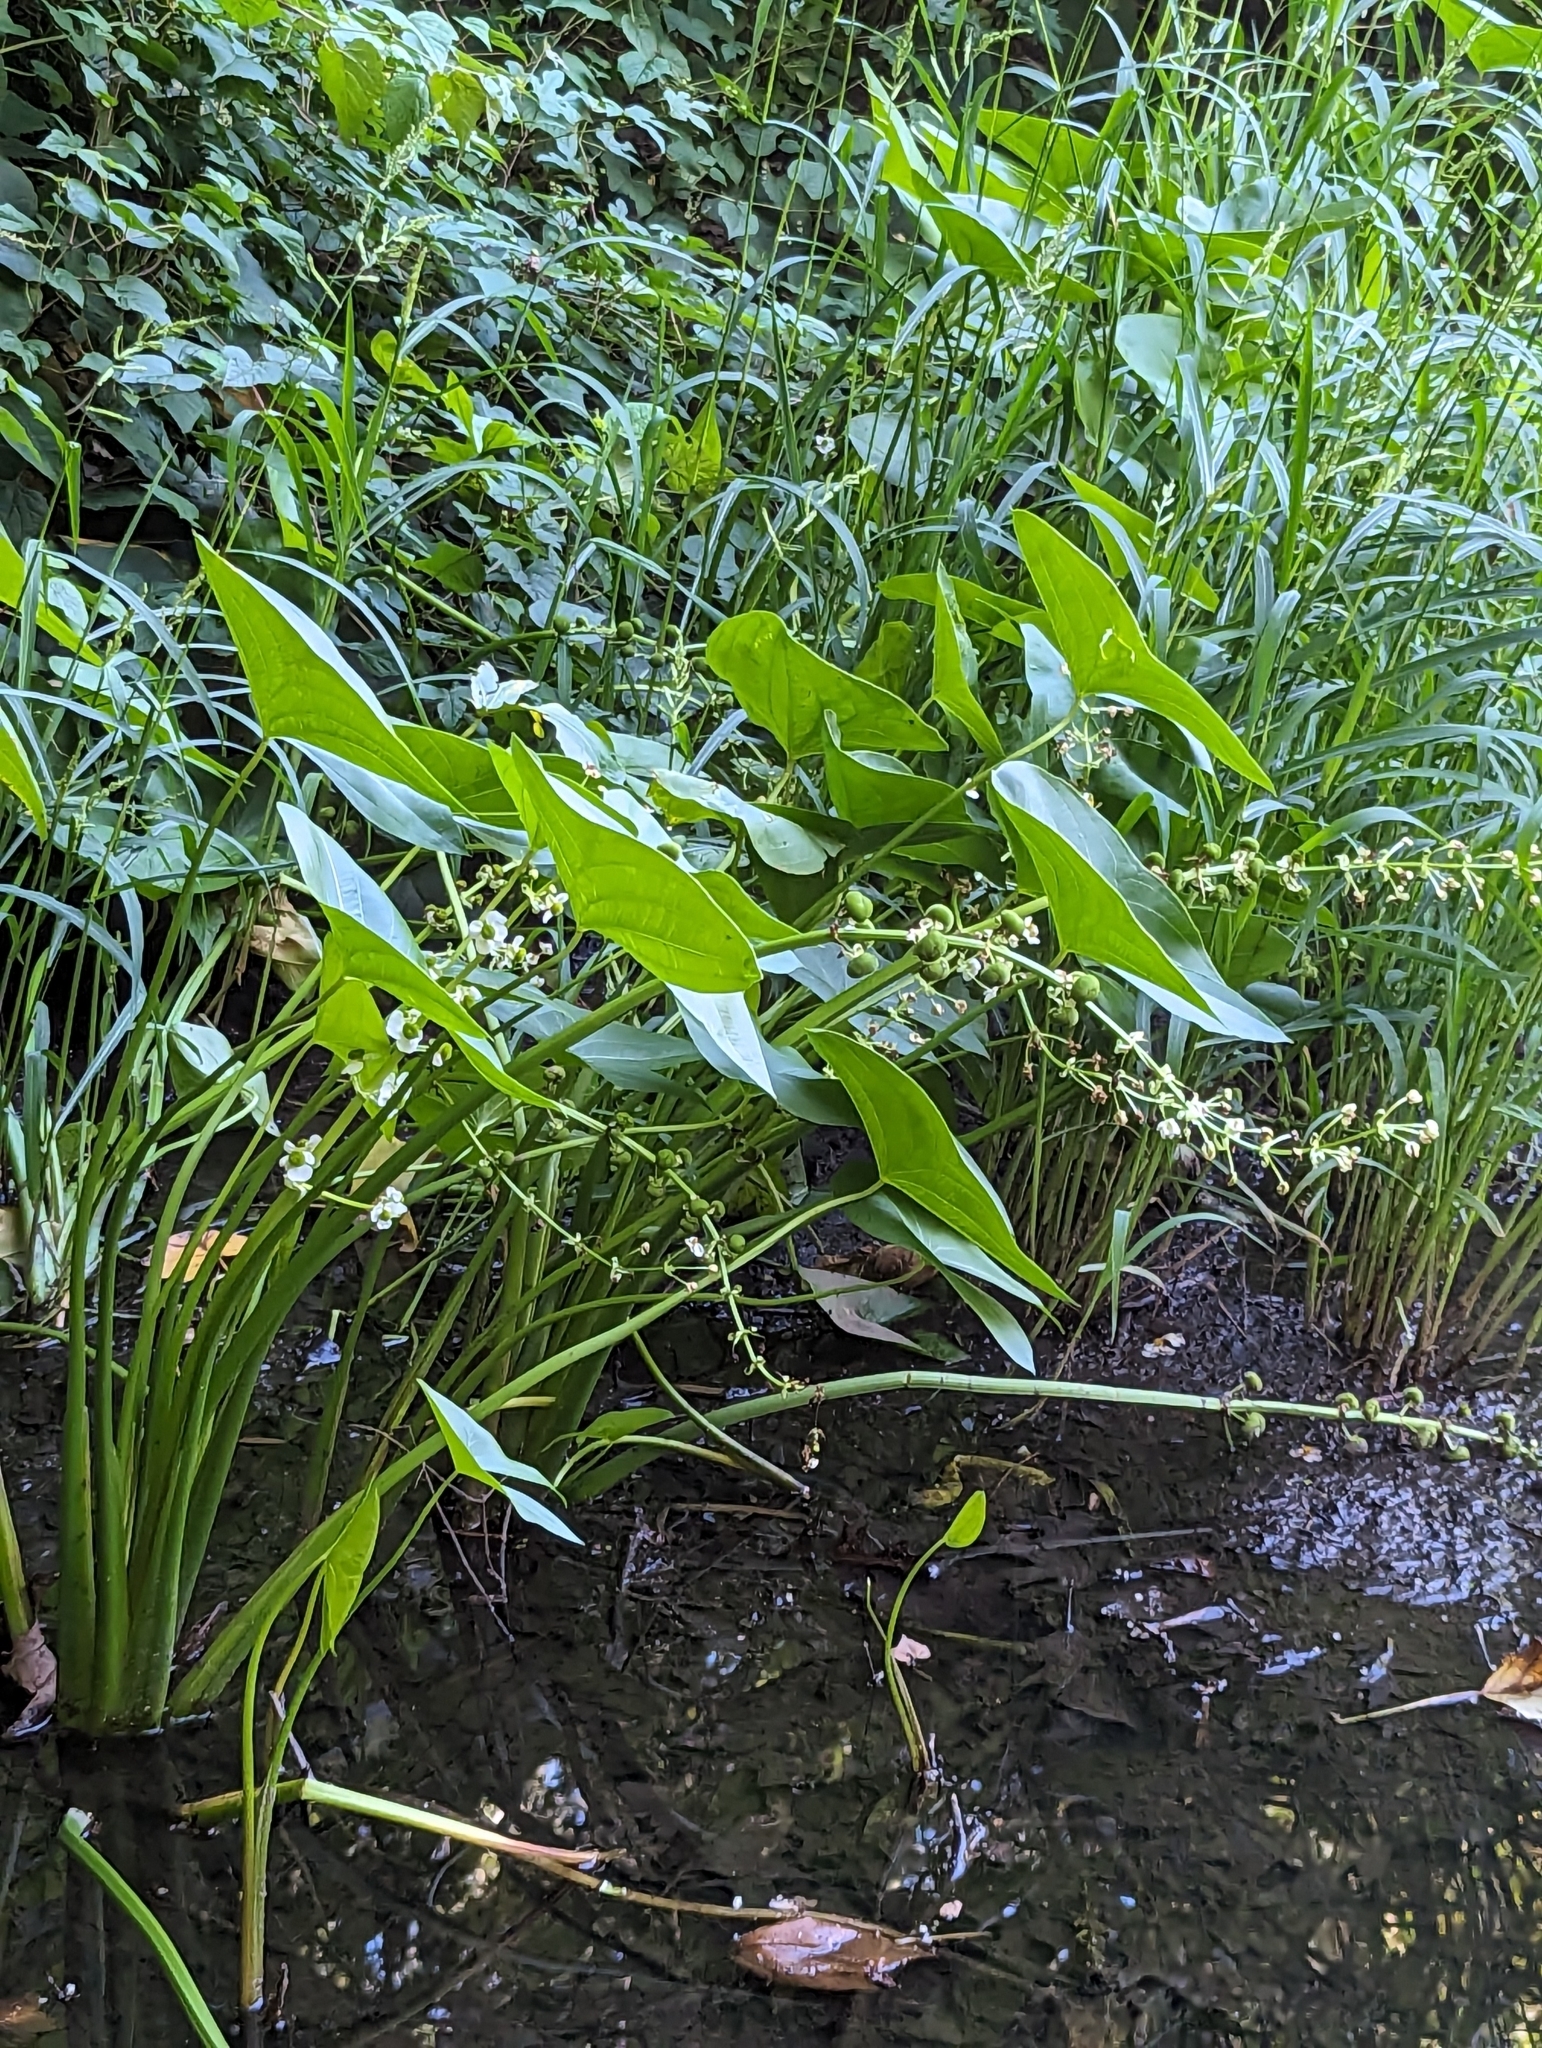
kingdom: Plantae
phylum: Tracheophyta
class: Liliopsida
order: Alismatales
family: Alismataceae
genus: Sagittaria
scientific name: Sagittaria brevirostra
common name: Midwestern arrowhead
